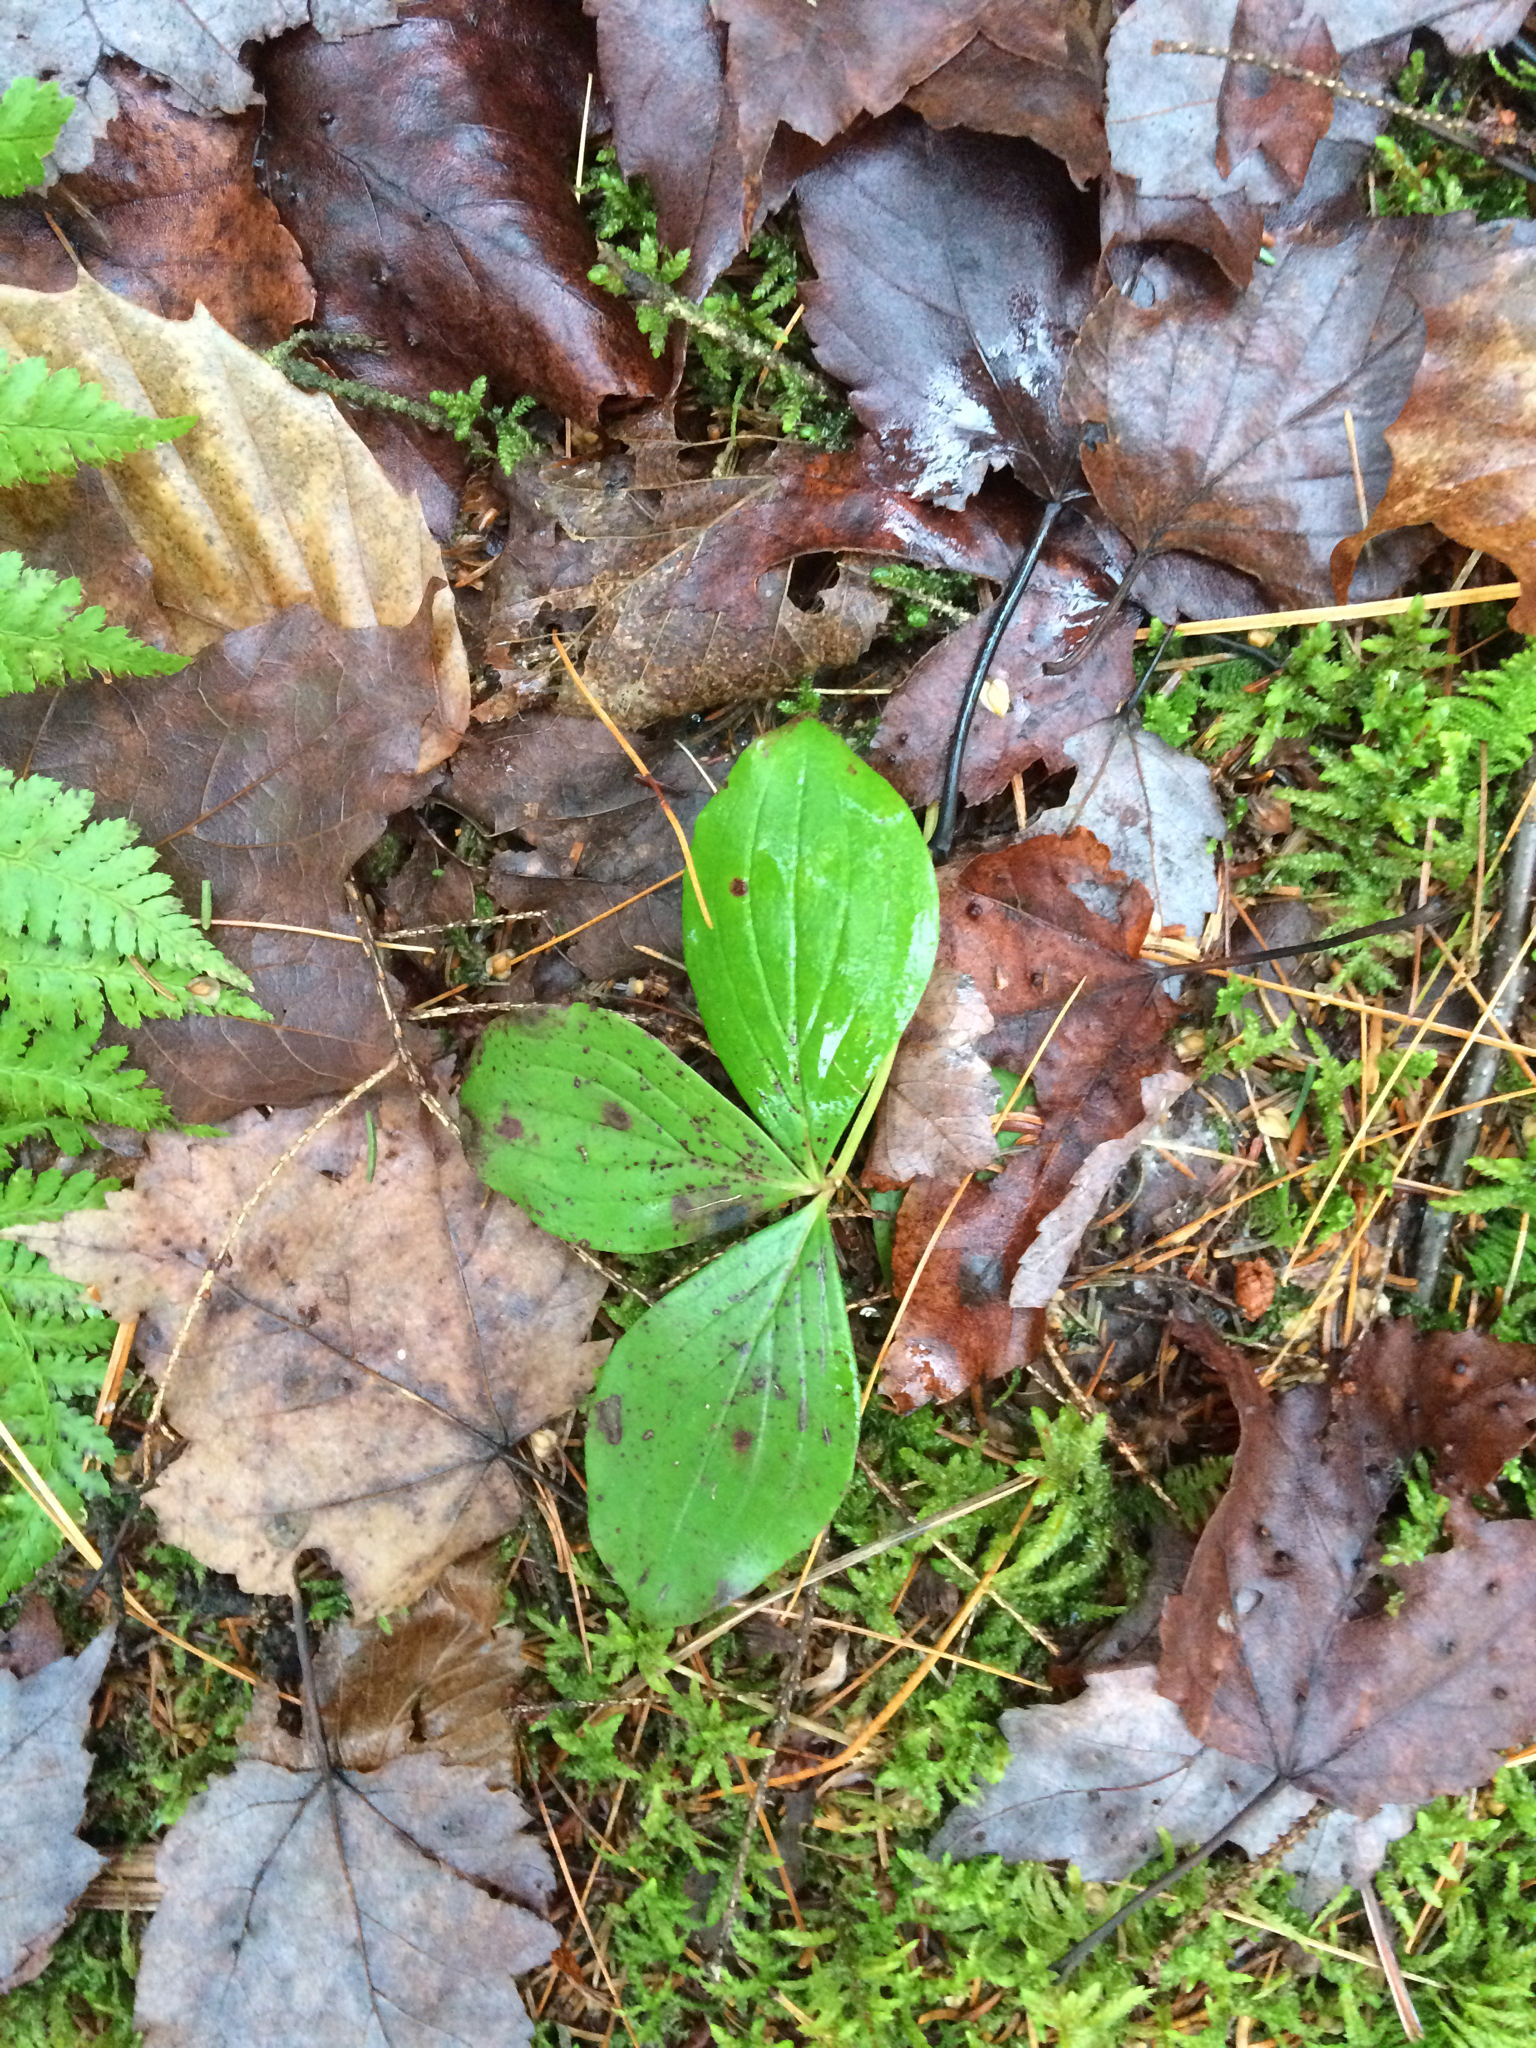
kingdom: Plantae
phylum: Tracheophyta
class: Magnoliopsida
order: Cornales
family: Cornaceae
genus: Cornus
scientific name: Cornus canadensis
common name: Creeping dogwood
